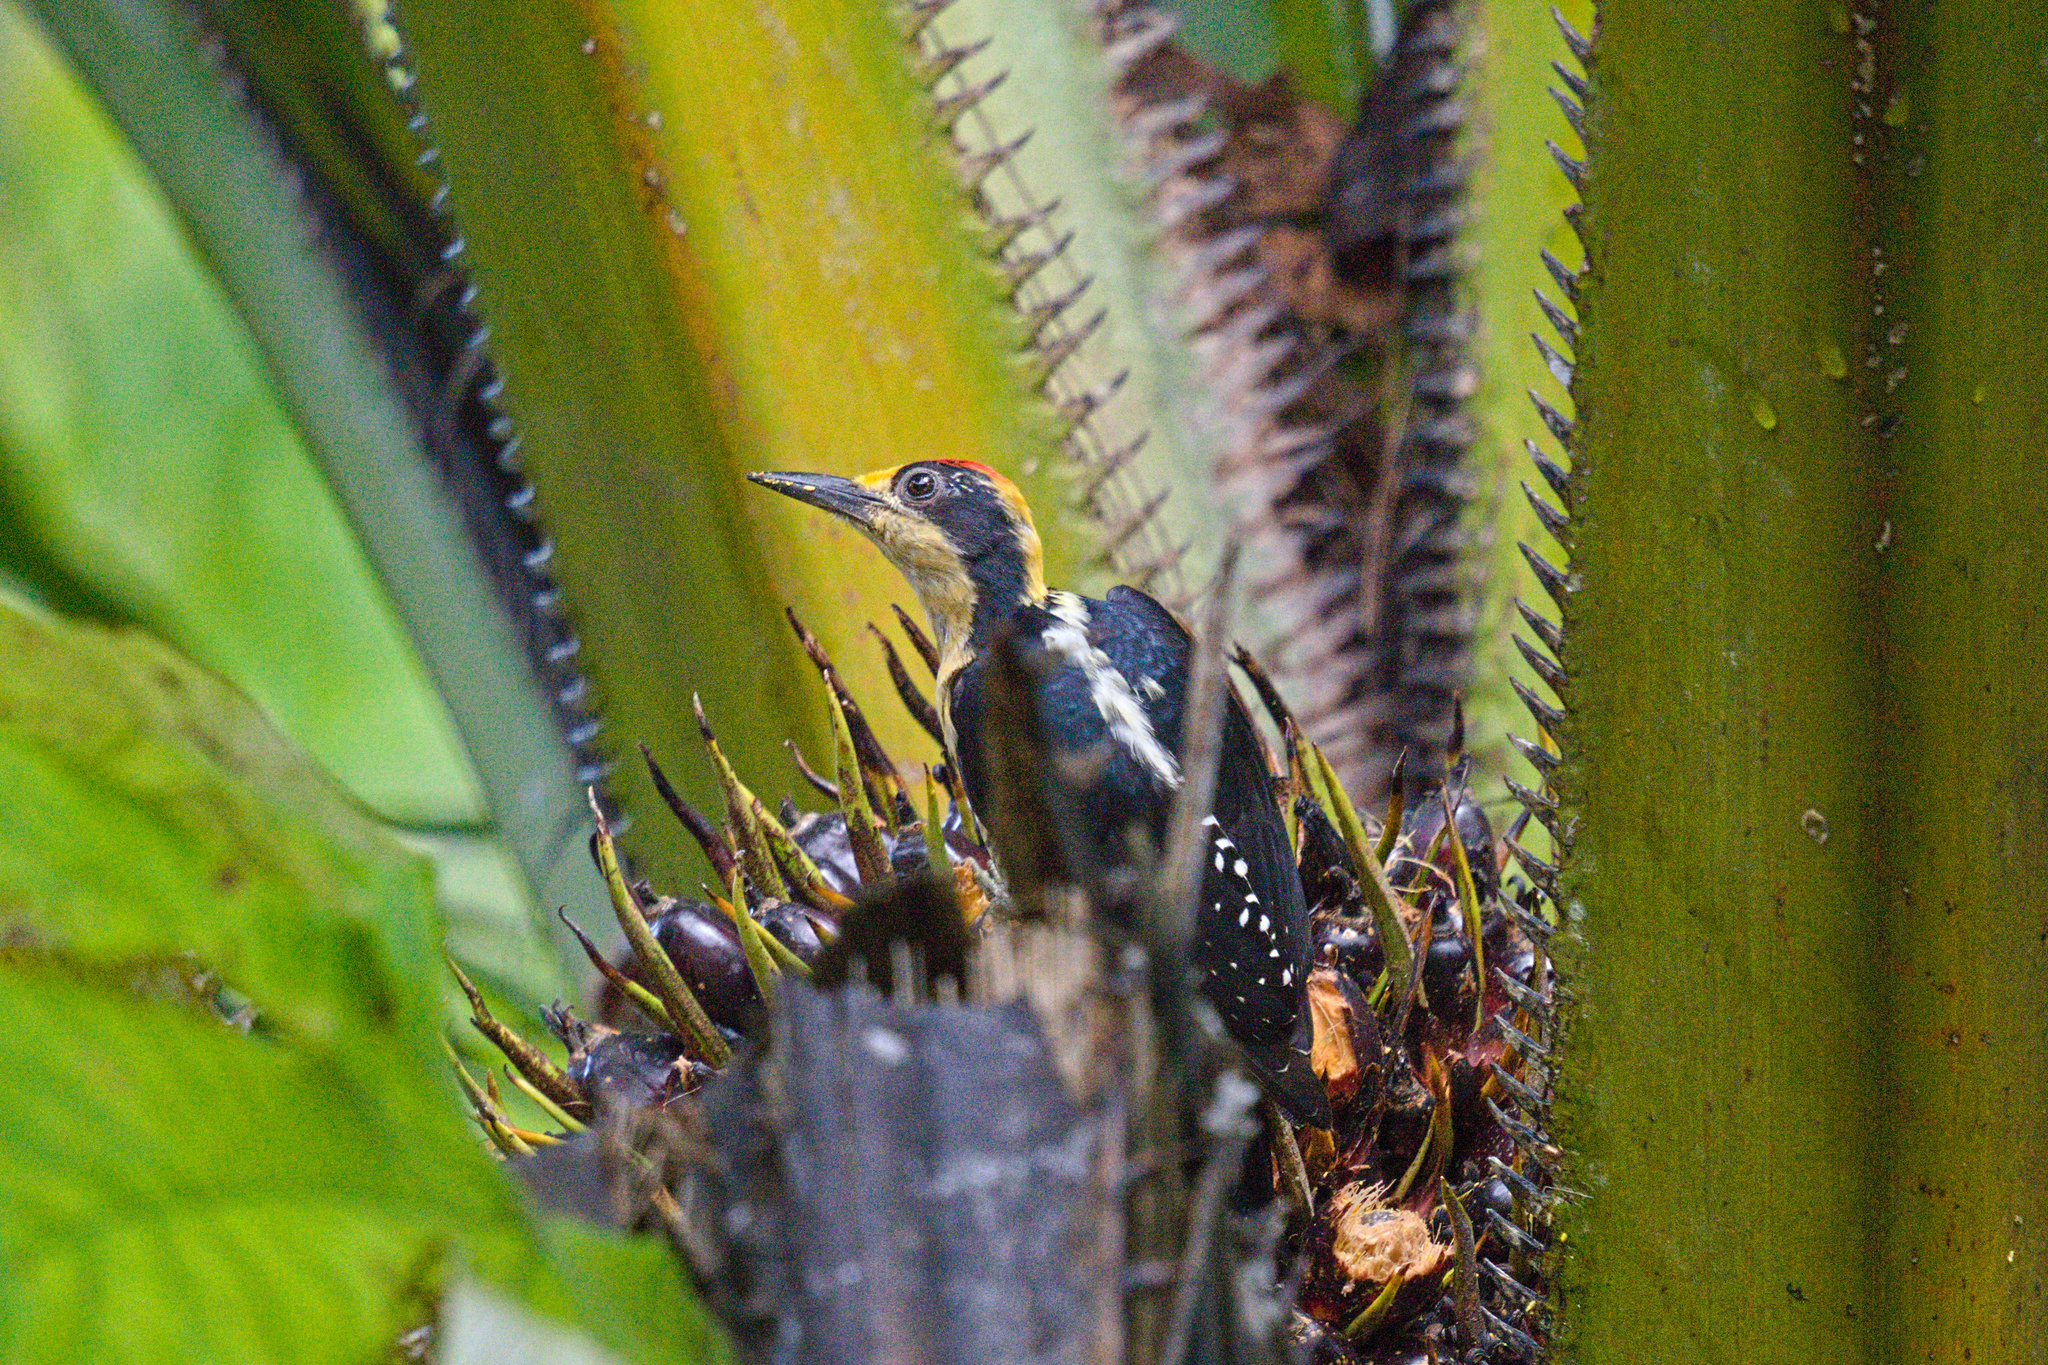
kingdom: Animalia
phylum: Chordata
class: Aves
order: Piciformes
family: Picidae
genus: Melanerpes
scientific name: Melanerpes chrysauchen
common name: Golden-naped woodpecker
